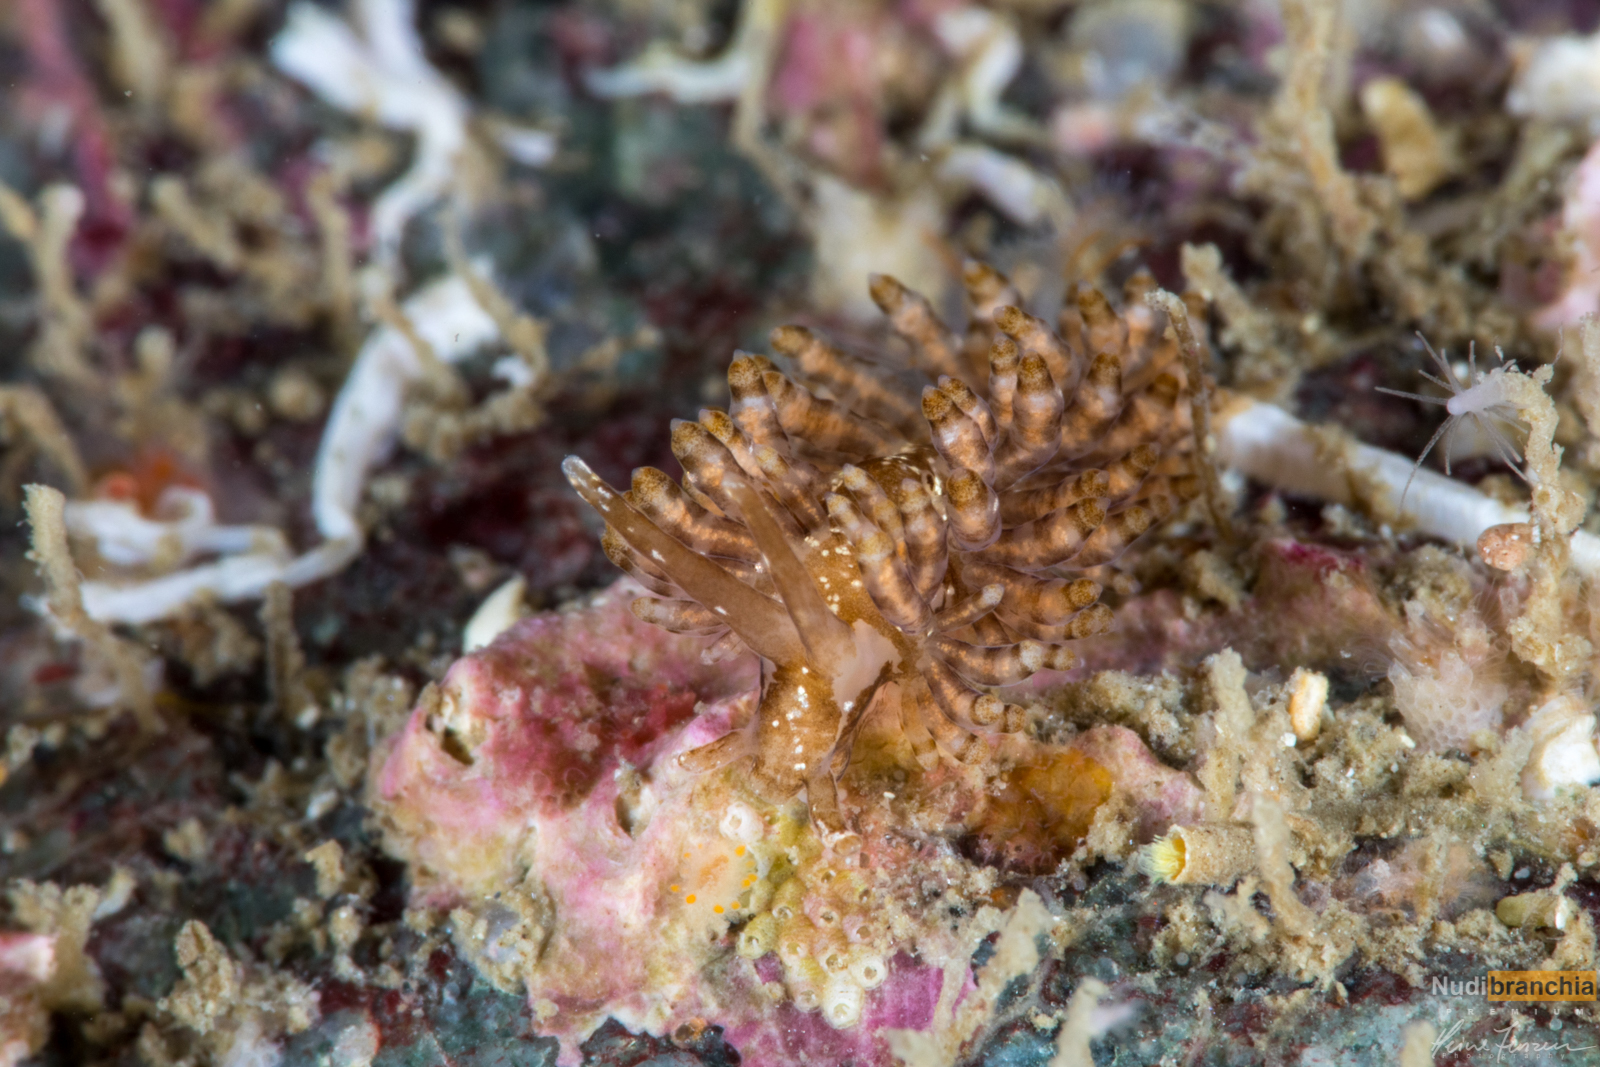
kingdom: Animalia
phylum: Mollusca
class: Gastropoda
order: Nudibranchia
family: Eubranchidae
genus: Eubranchus
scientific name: Eubranchus vittatus
